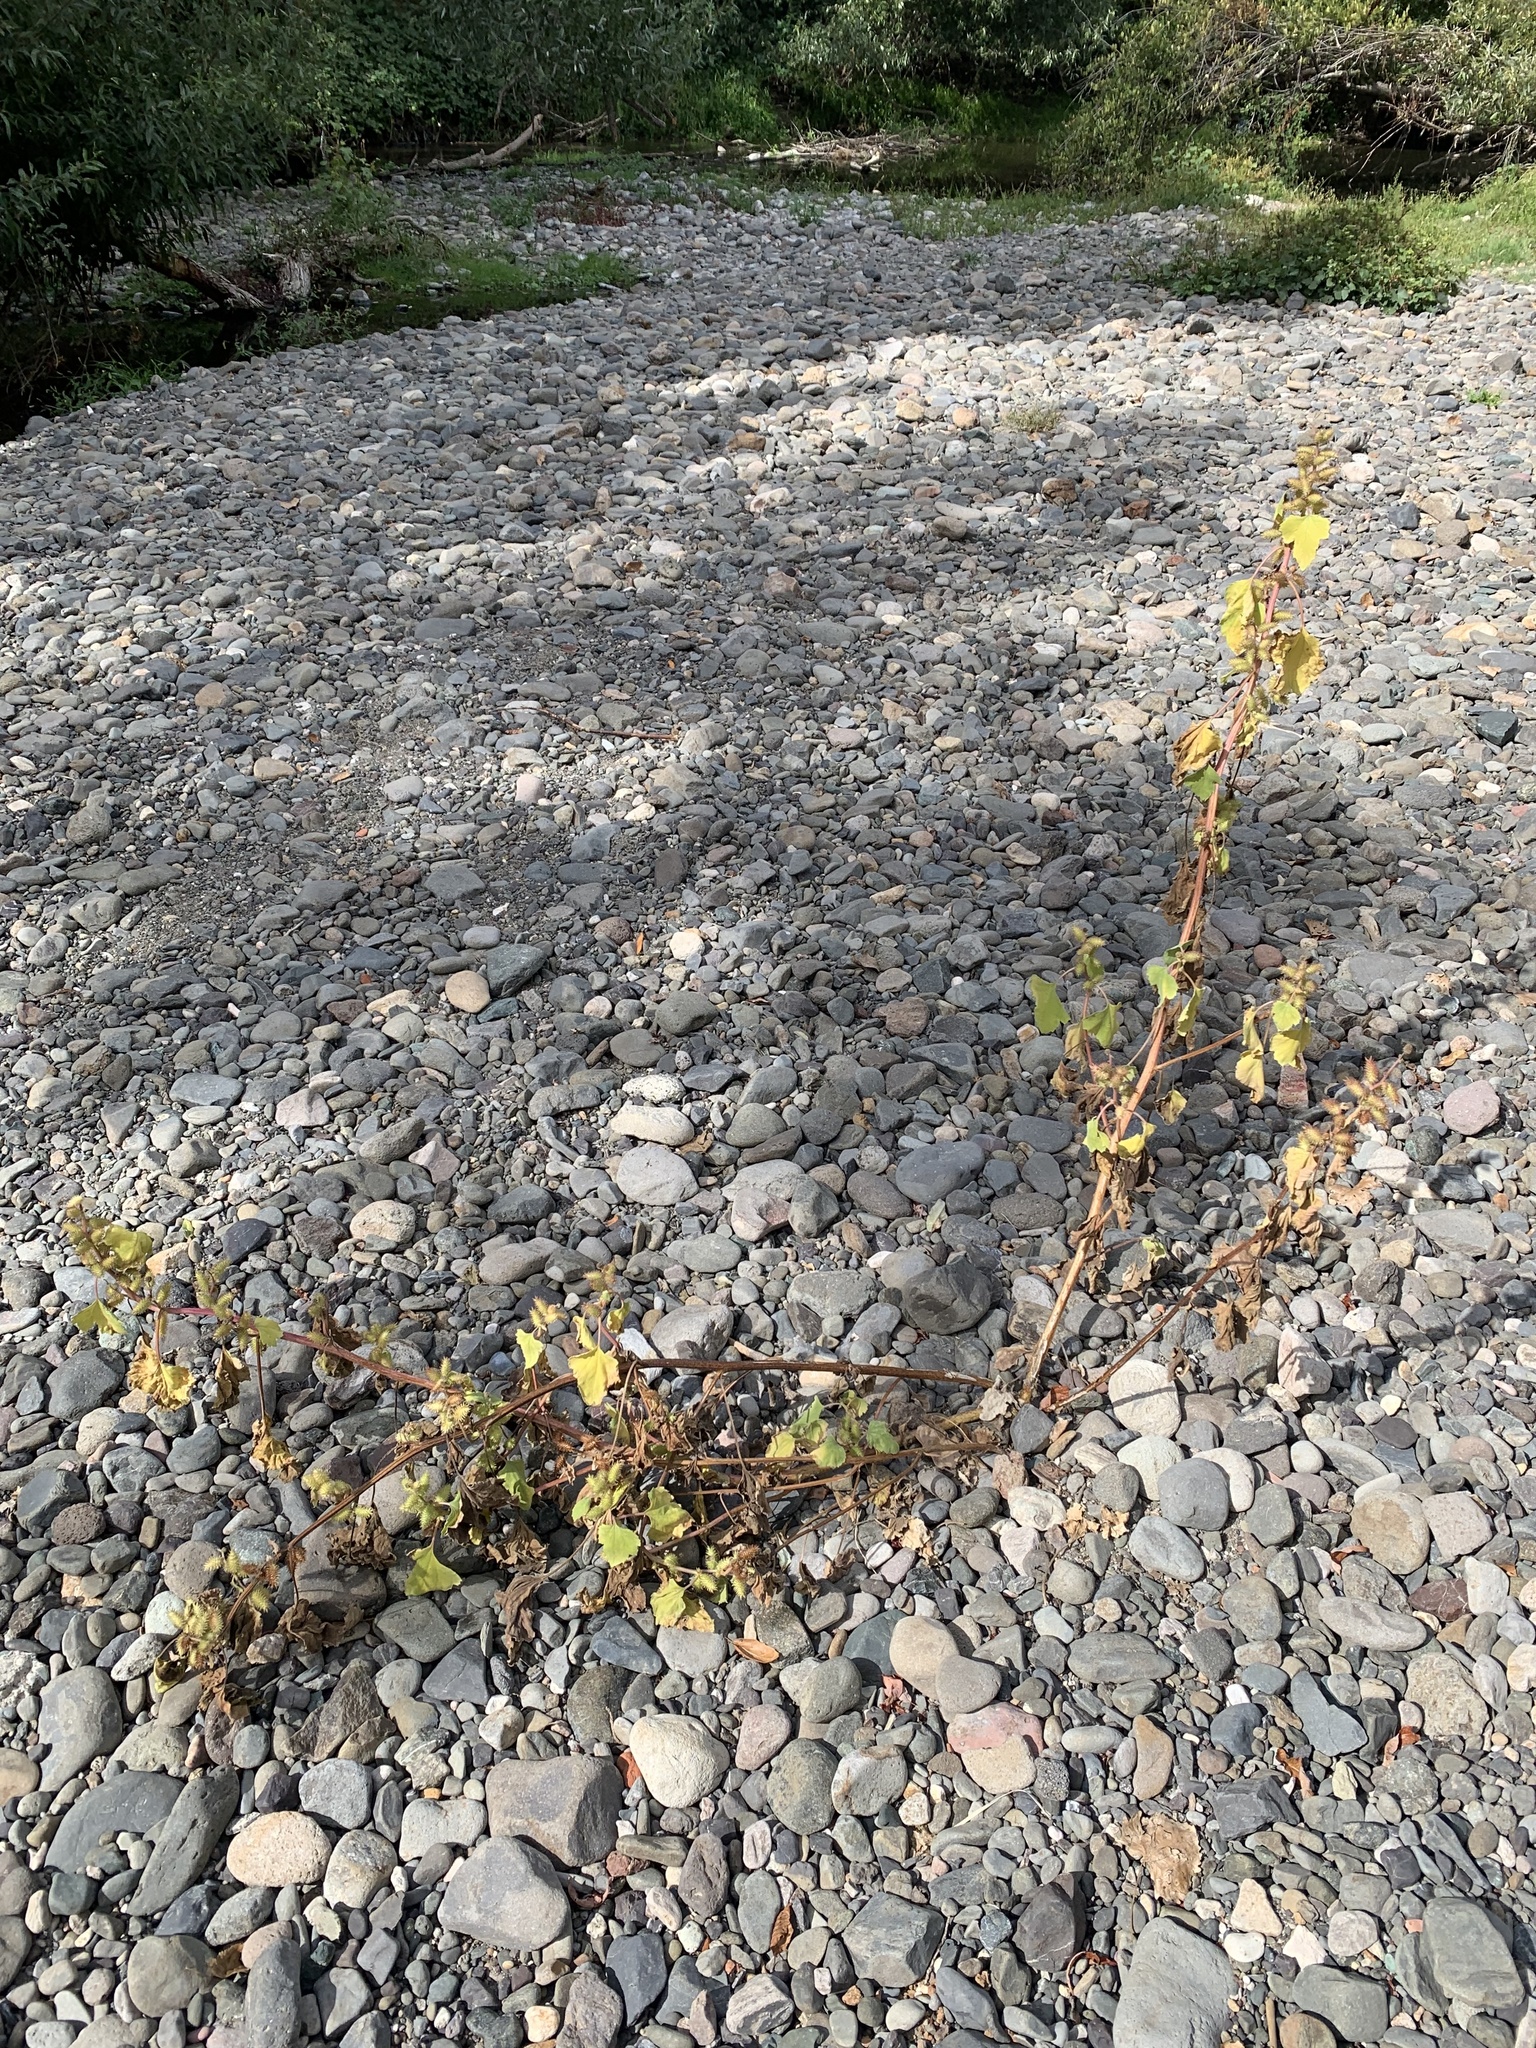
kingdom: Plantae
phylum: Tracheophyta
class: Magnoliopsida
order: Asterales
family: Asteraceae
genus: Xanthium
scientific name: Xanthium strumarium
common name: Rough cocklebur
